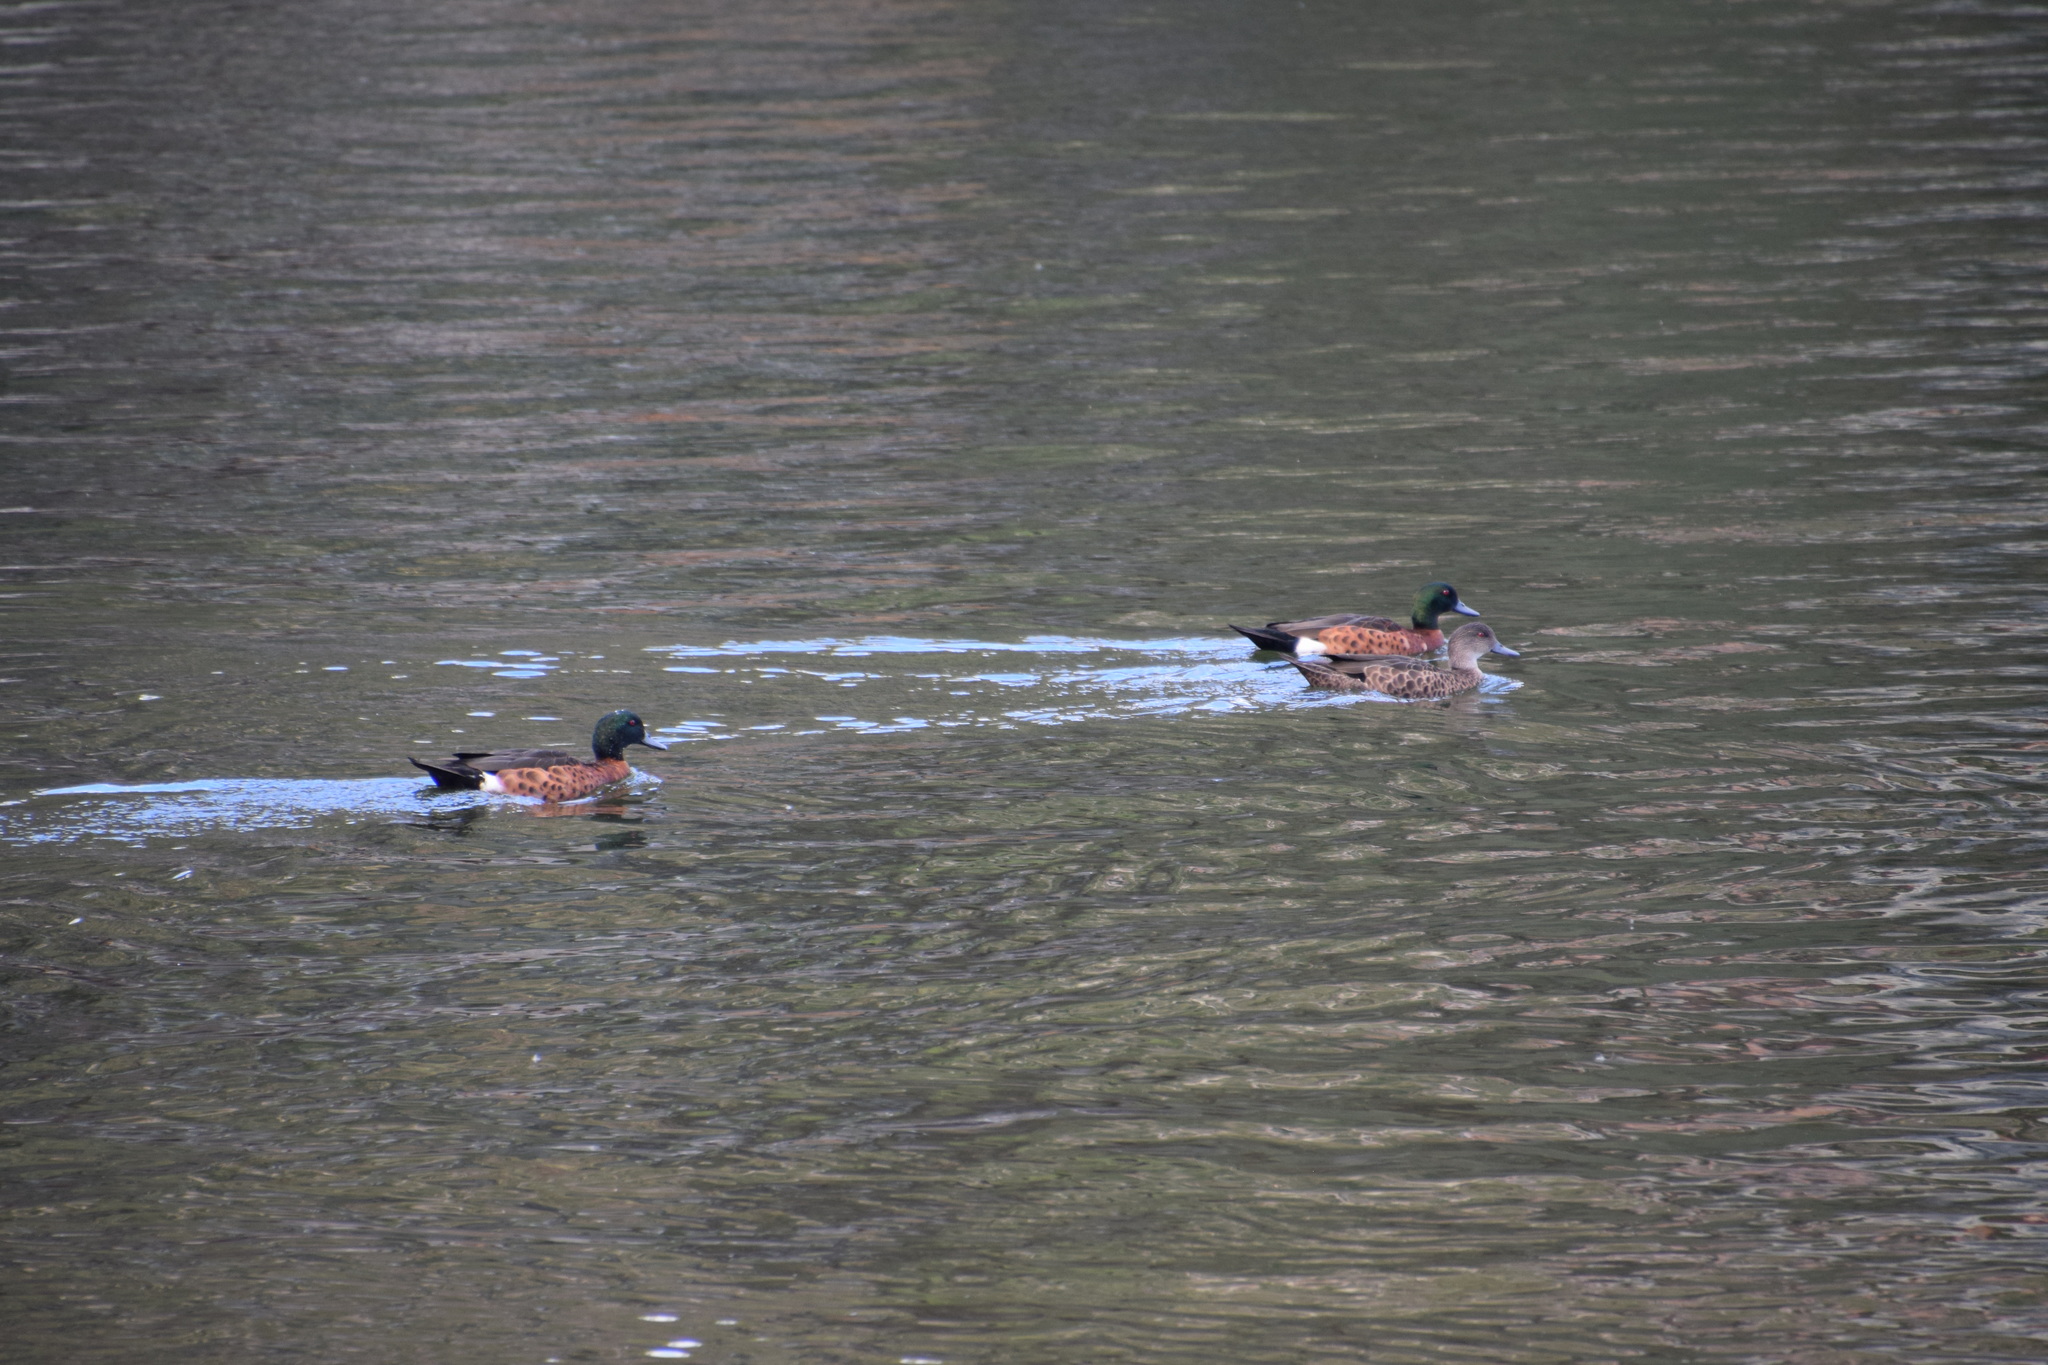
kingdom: Animalia
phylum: Chordata
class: Aves
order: Anseriformes
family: Anatidae
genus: Anas
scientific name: Anas castanea
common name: Chestnut teal
